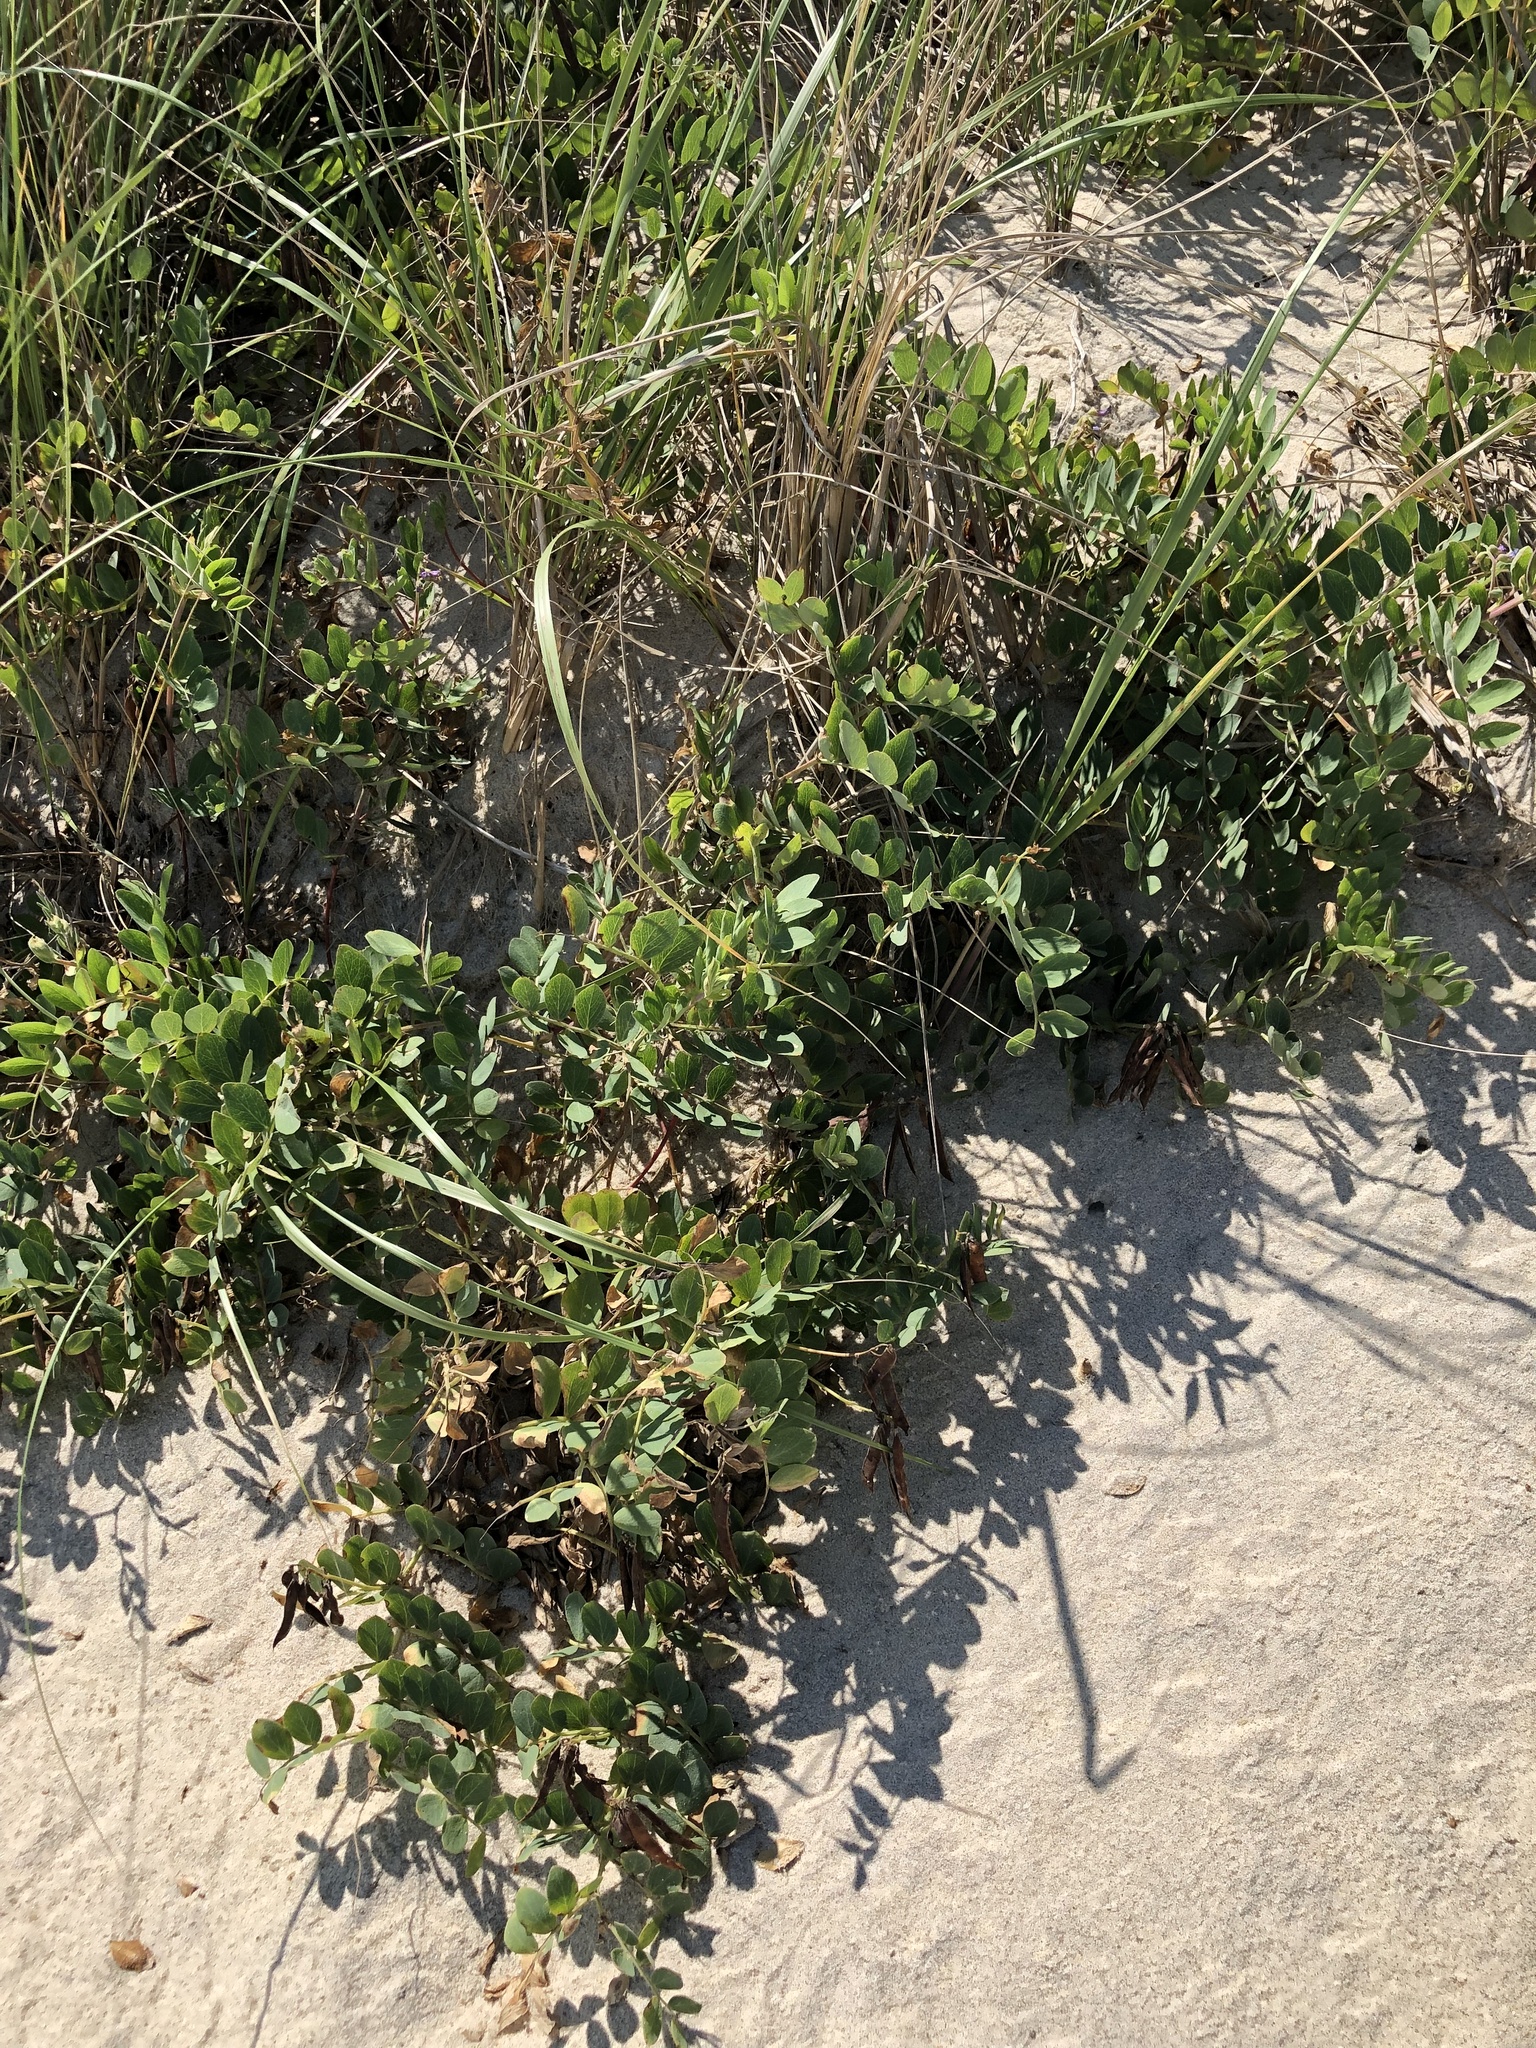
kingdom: Plantae
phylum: Tracheophyta
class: Magnoliopsida
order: Fabales
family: Fabaceae
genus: Lathyrus
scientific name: Lathyrus japonicus
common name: Sea pea
